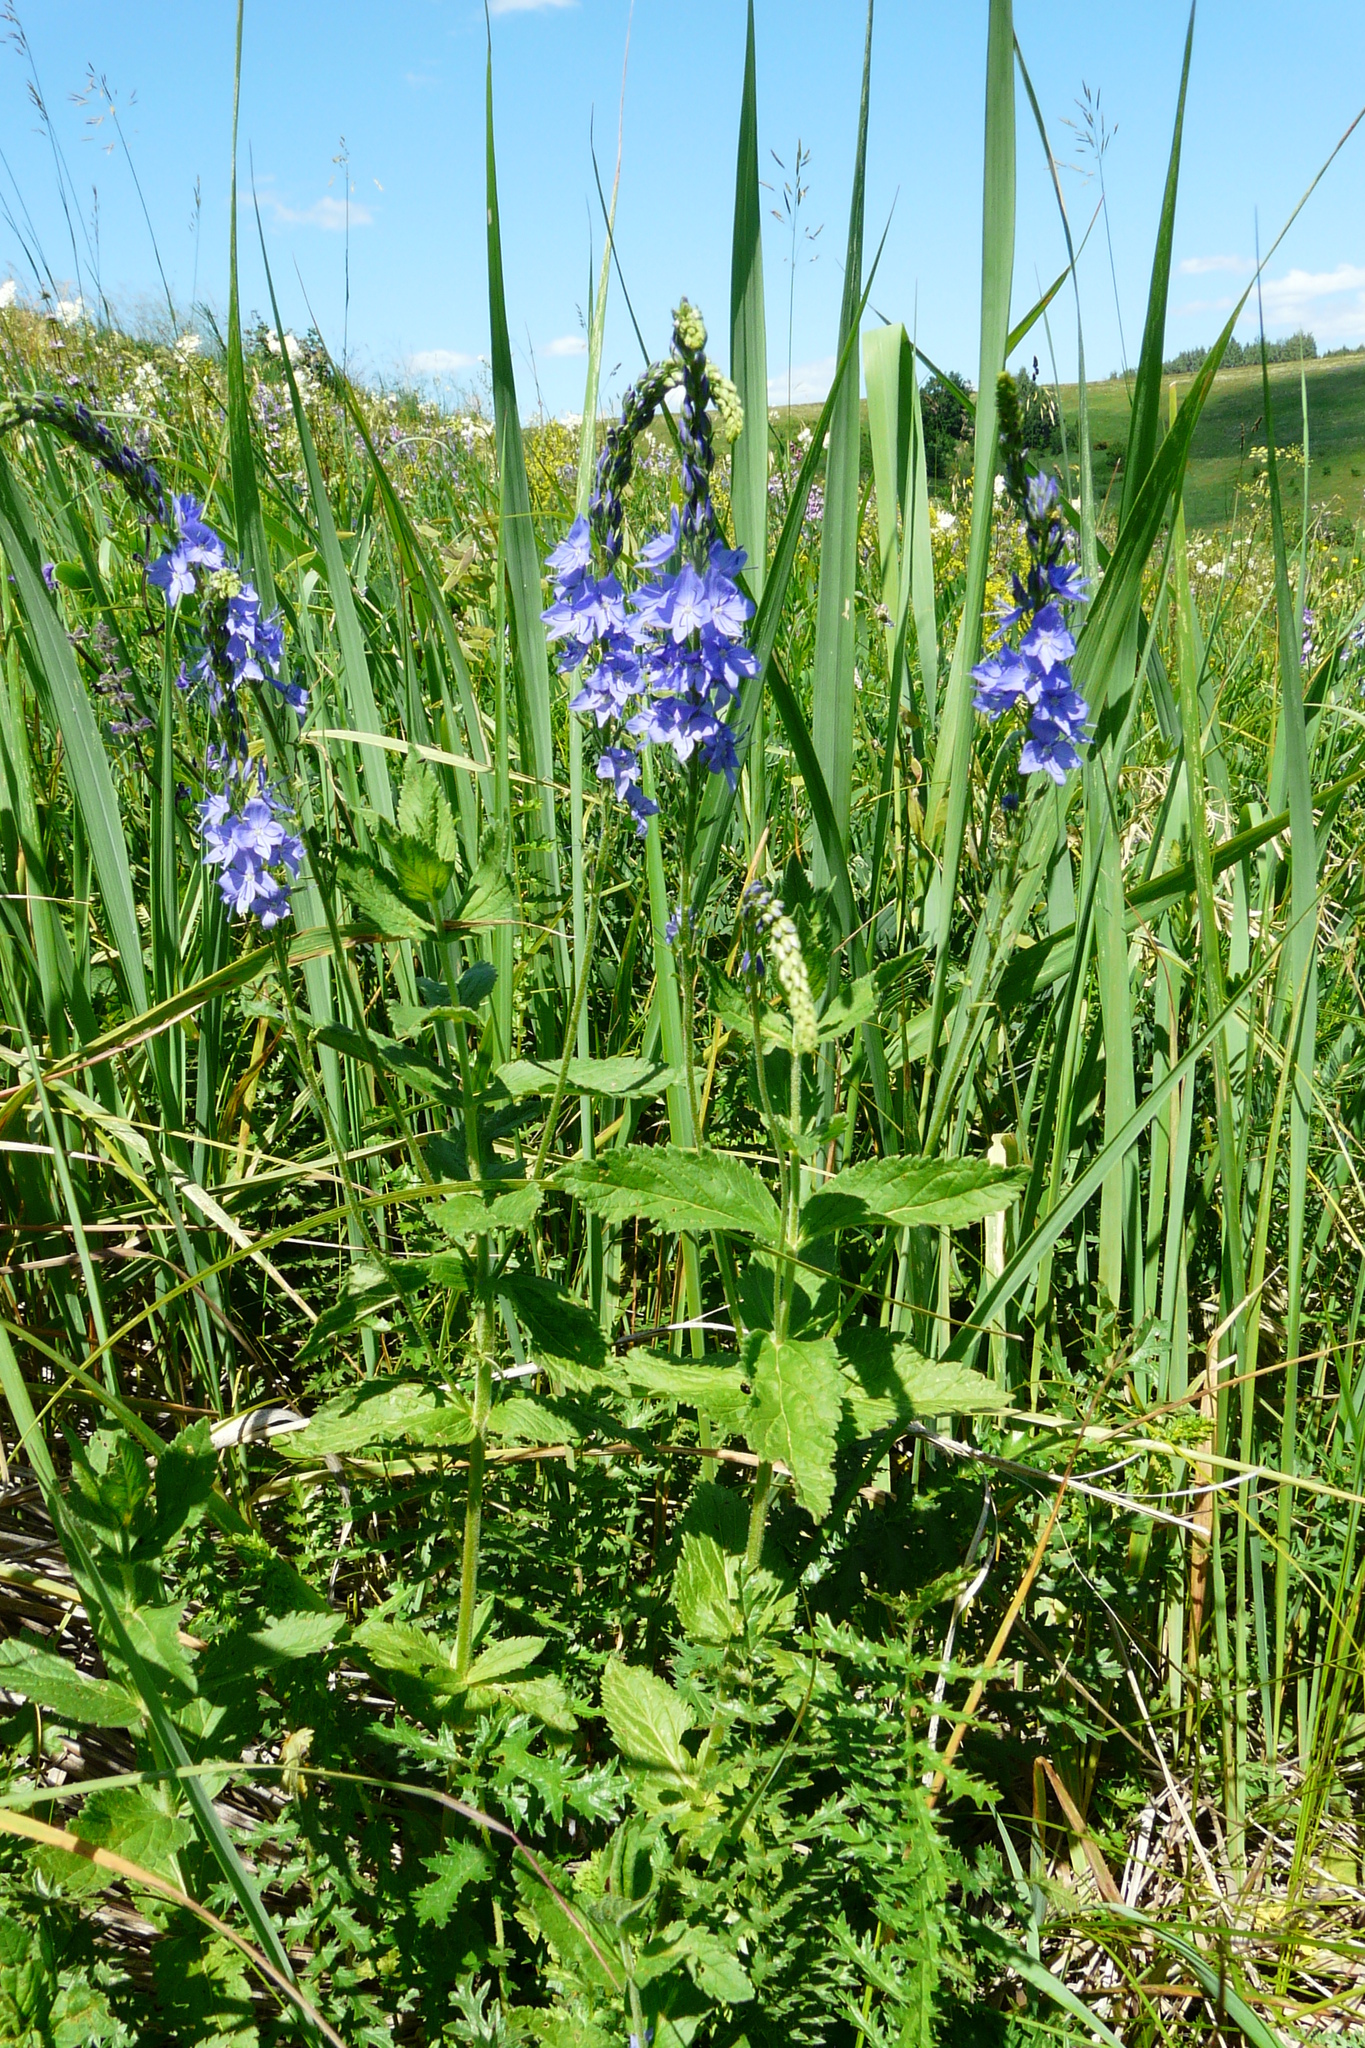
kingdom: Plantae
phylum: Tracheophyta
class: Magnoliopsida
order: Lamiales
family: Plantaginaceae
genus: Veronica
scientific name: Veronica teucrium
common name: Large speedwell
